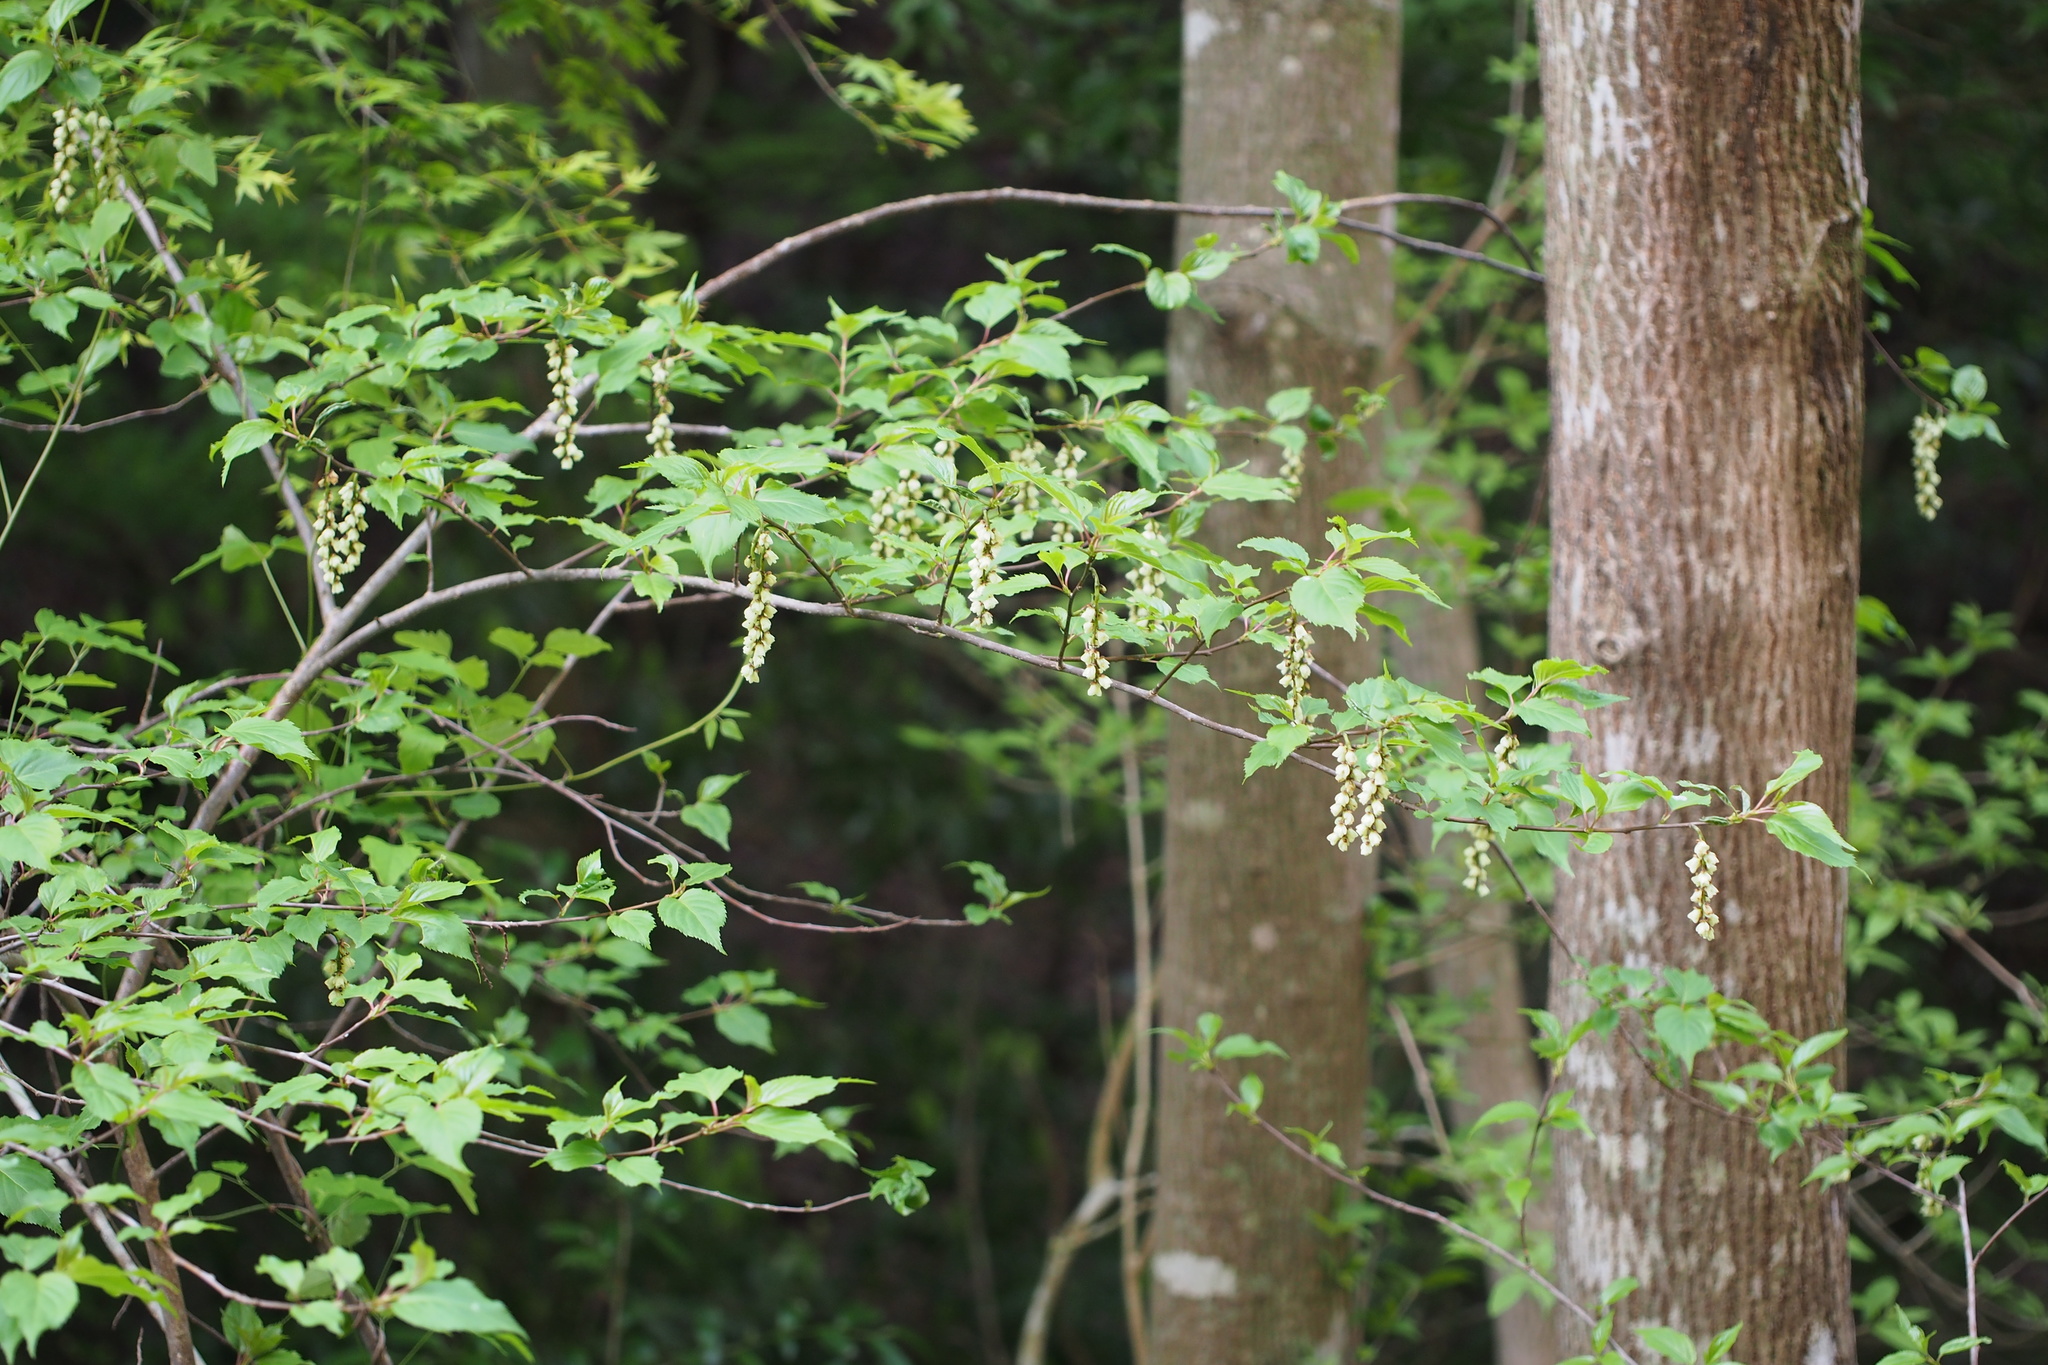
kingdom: Plantae
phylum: Tracheophyta
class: Magnoliopsida
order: Crossosomatales
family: Stachyuraceae
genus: Stachyurus
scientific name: Stachyurus praecox
